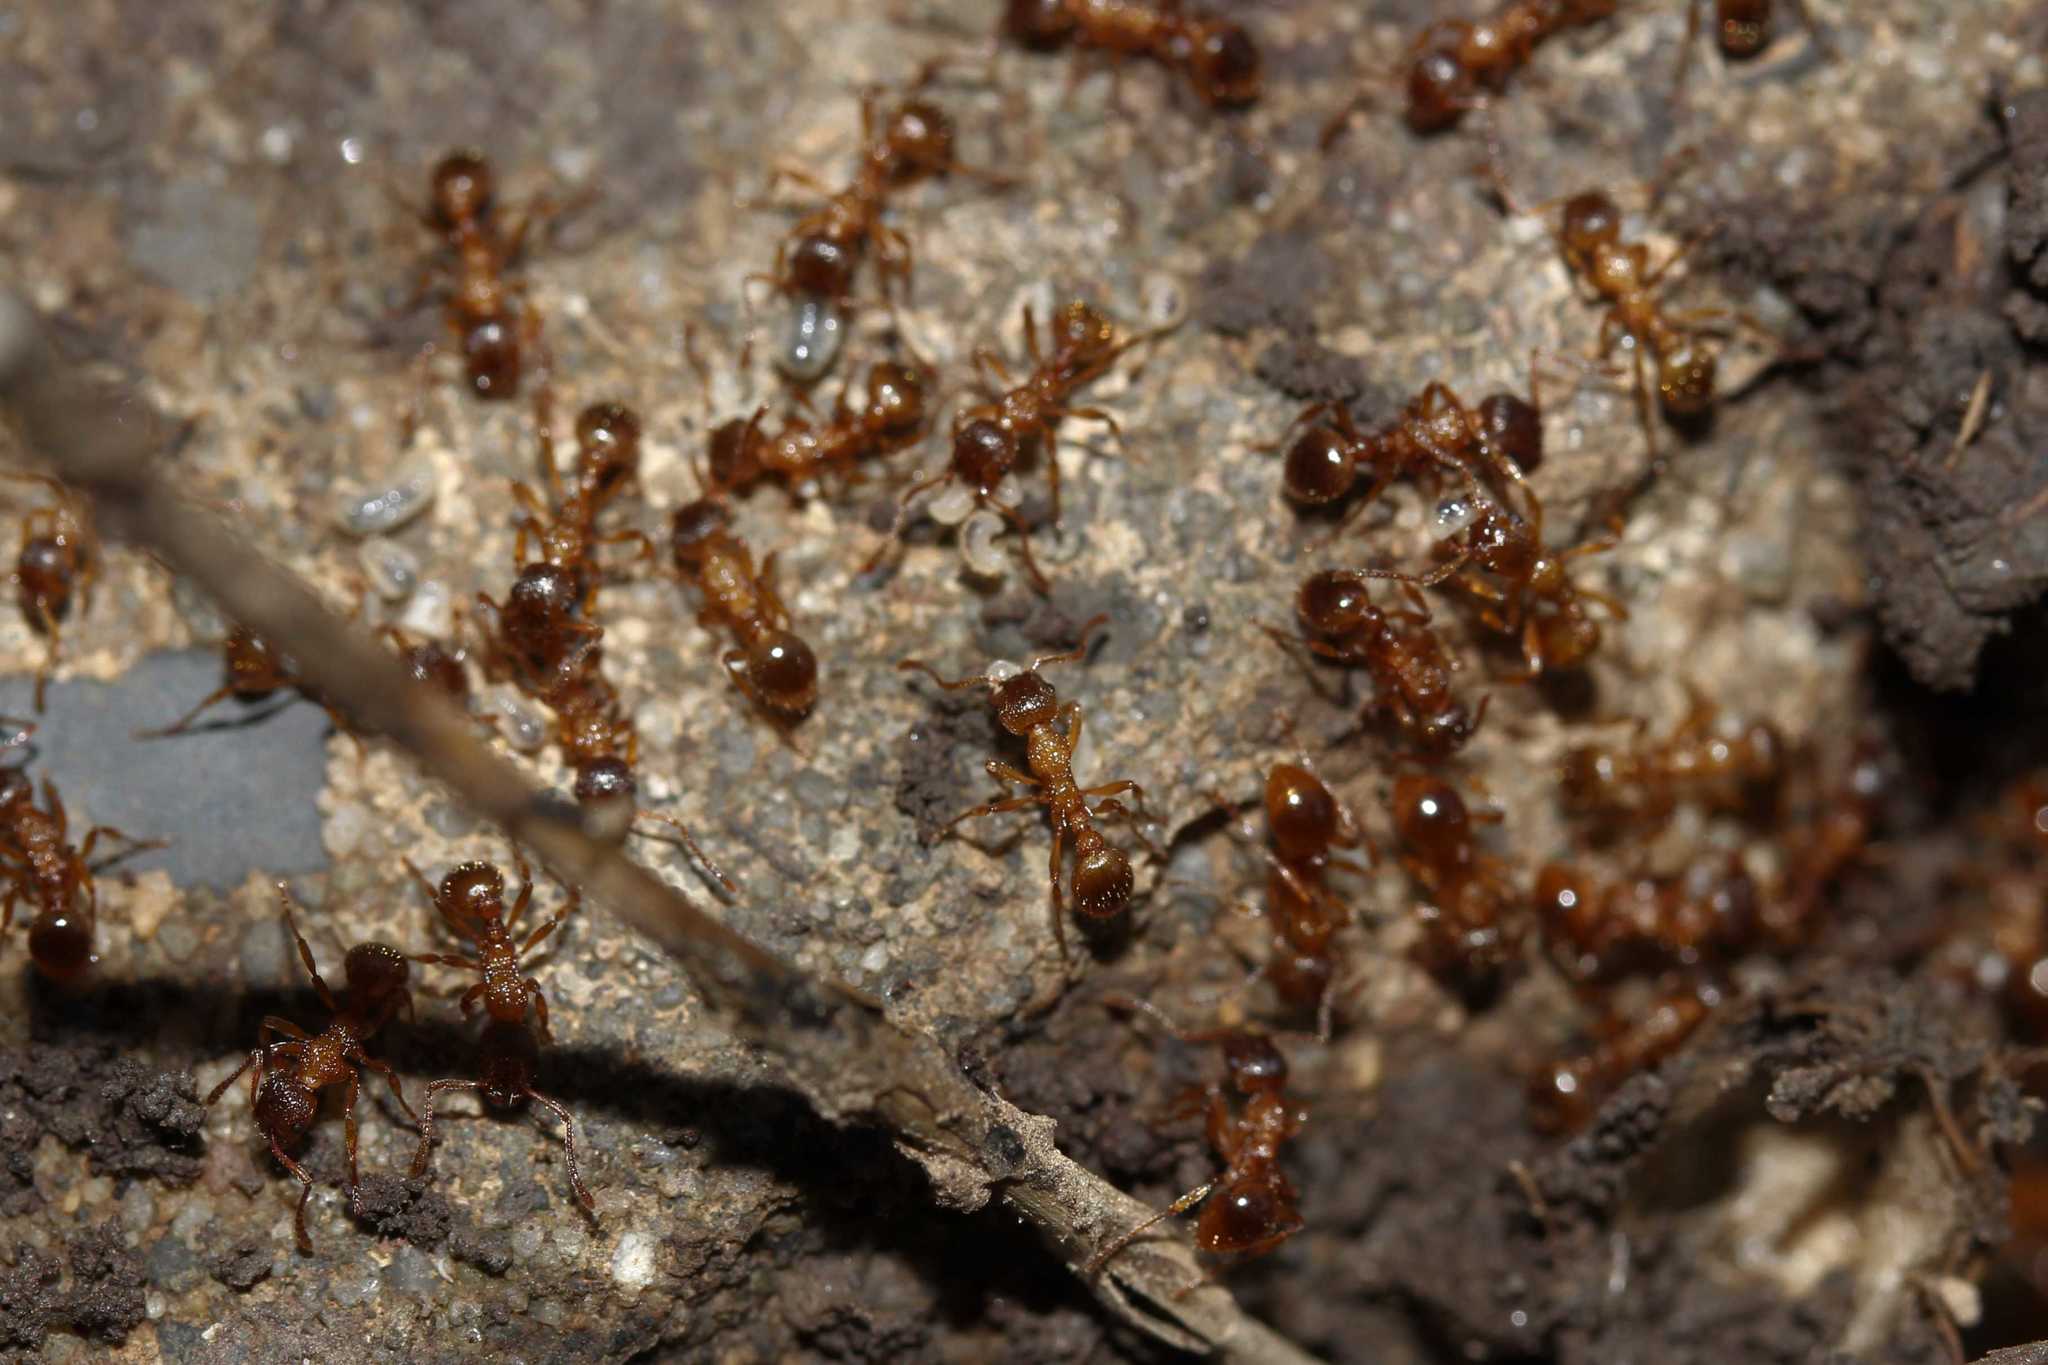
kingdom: Animalia
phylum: Arthropoda
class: Insecta
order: Hymenoptera
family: Formicidae
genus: Myrmica
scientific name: Myrmica
